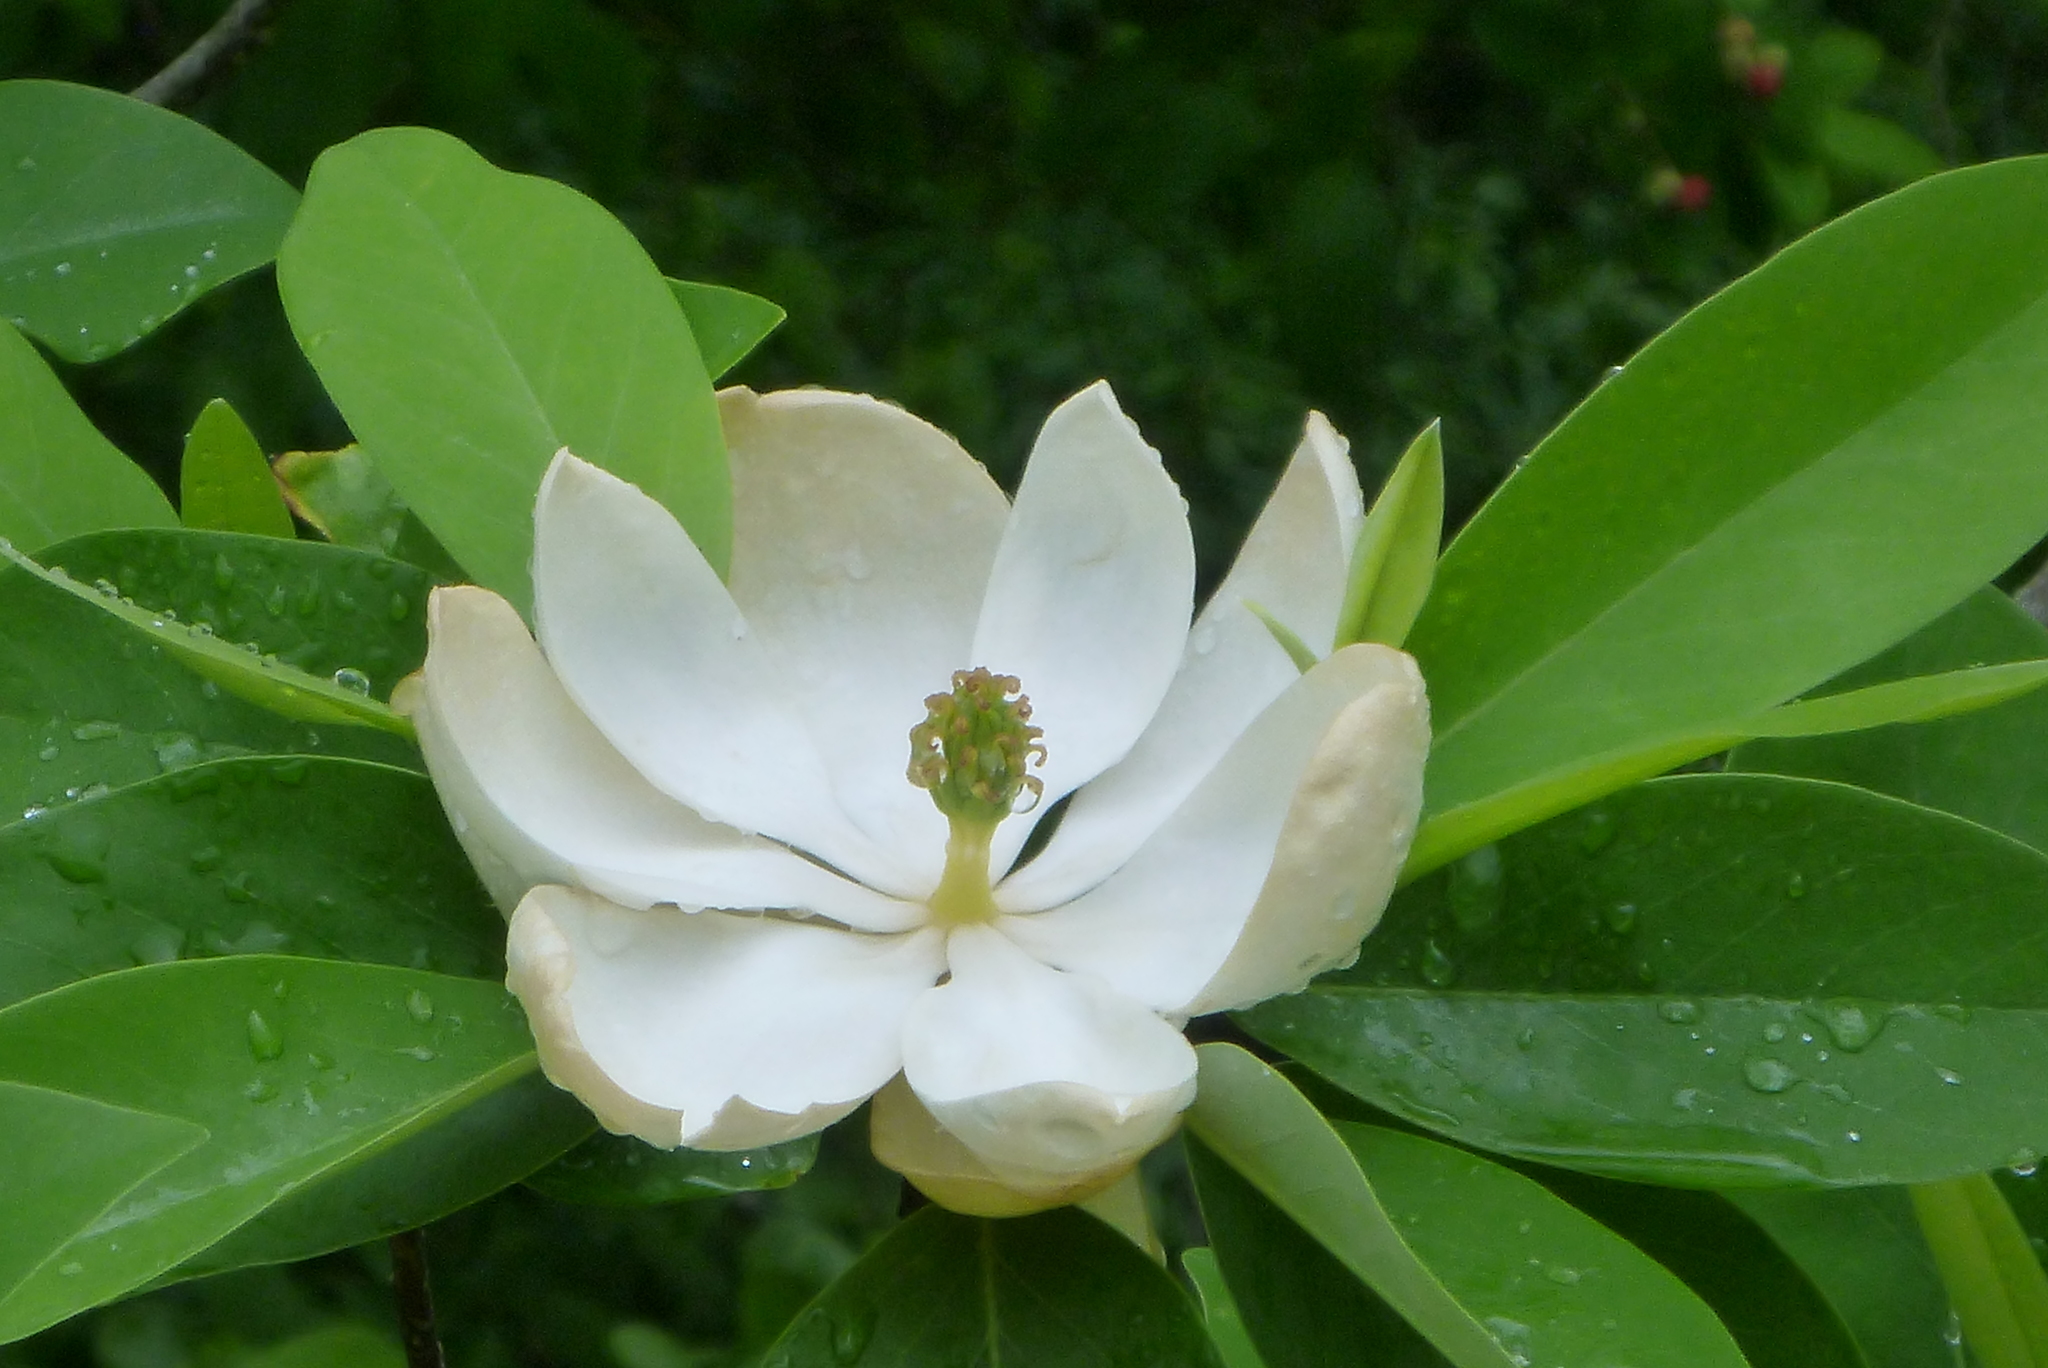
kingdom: Plantae
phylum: Tracheophyta
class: Magnoliopsida
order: Magnoliales
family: Magnoliaceae
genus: Magnolia
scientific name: Magnolia virginiana
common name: Swamp bay
